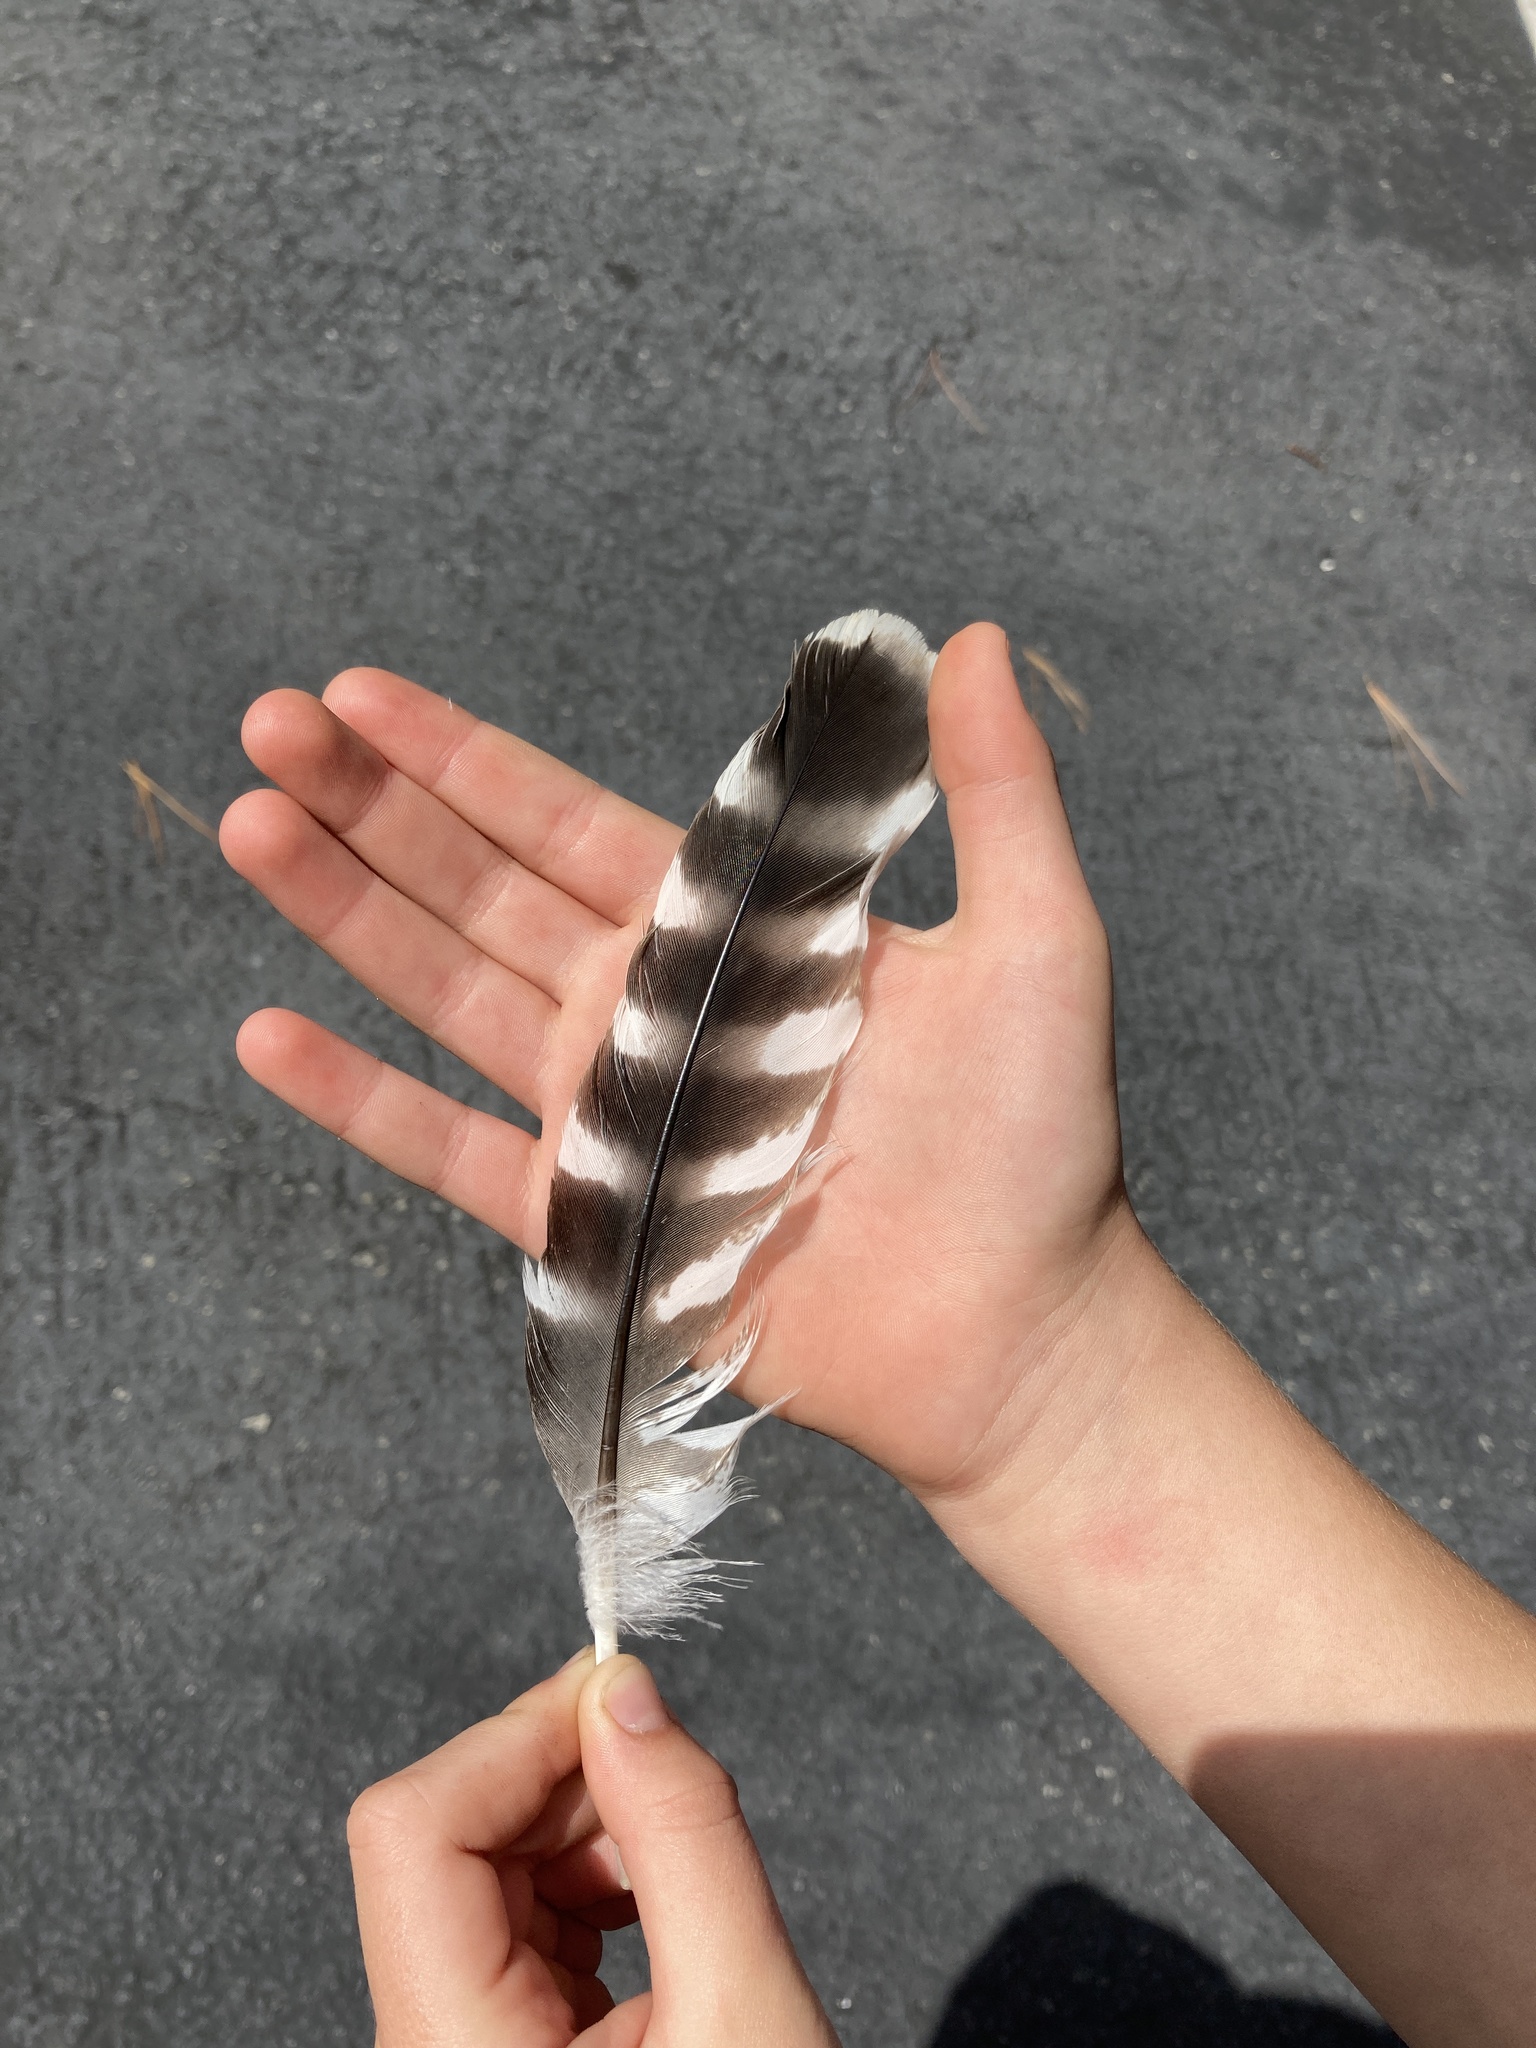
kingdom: Animalia
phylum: Chordata
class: Aves
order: Accipitriformes
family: Accipitridae
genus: Buteo
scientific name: Buteo lineatus
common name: Red-shouldered hawk
